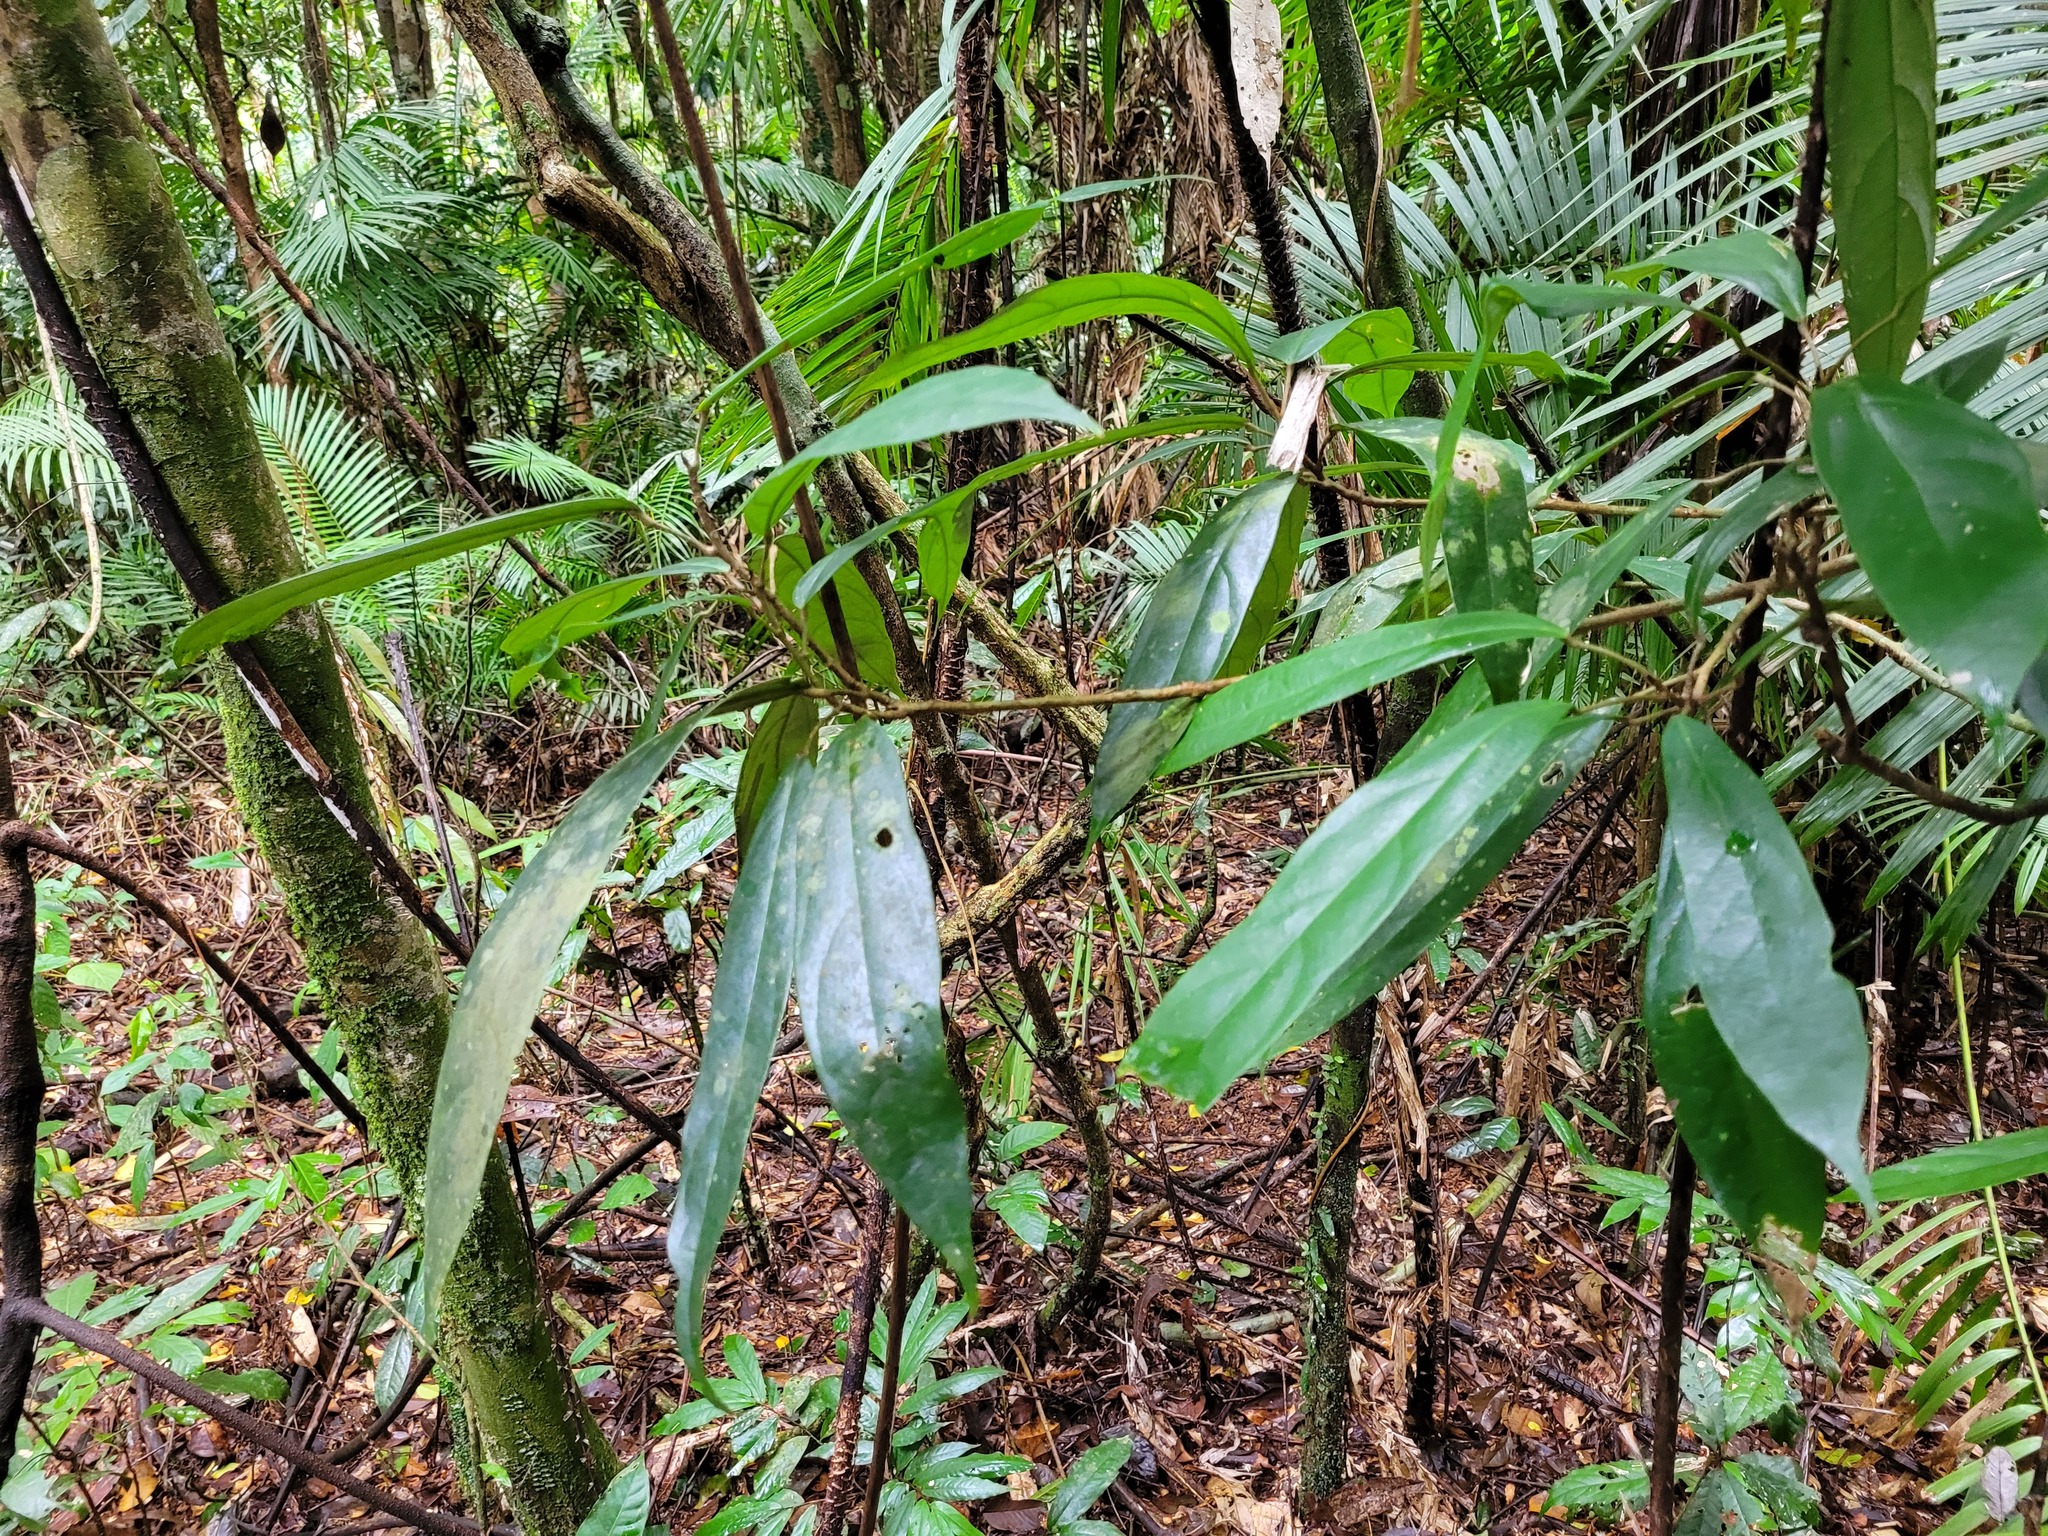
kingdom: Plantae
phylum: Tracheophyta
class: Magnoliopsida
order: Malpighiales
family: Achariaceae
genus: Ryparosa
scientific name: Ryparosa kurrangii
